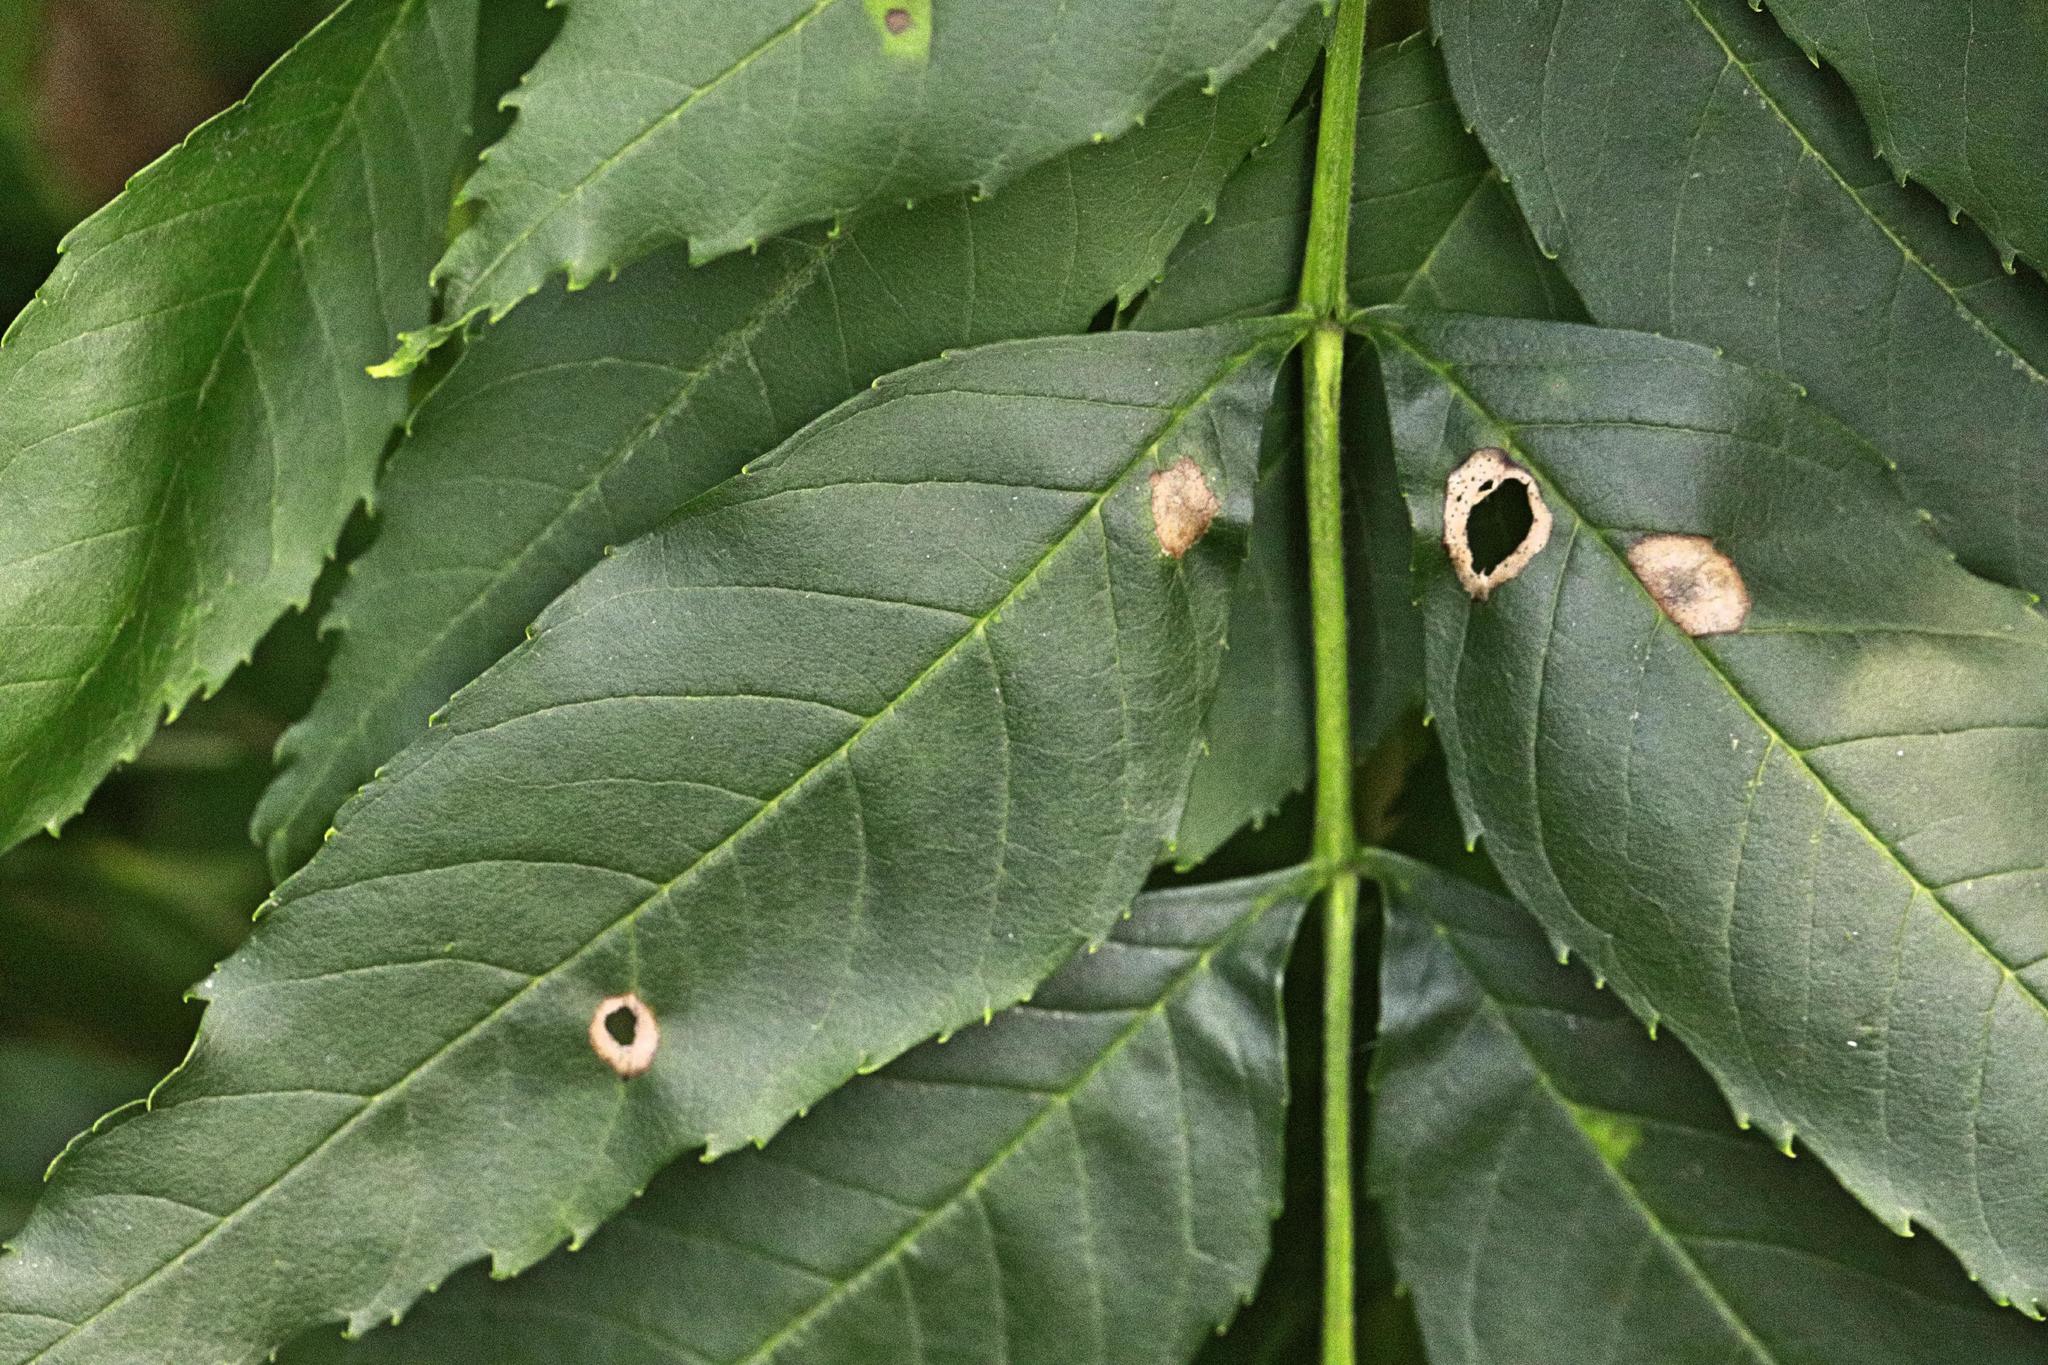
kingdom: Animalia
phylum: Arthropoda
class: Insecta
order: Diptera
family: Cecidomyiidae
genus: Dasineura
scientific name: Dasineura fraxinea
